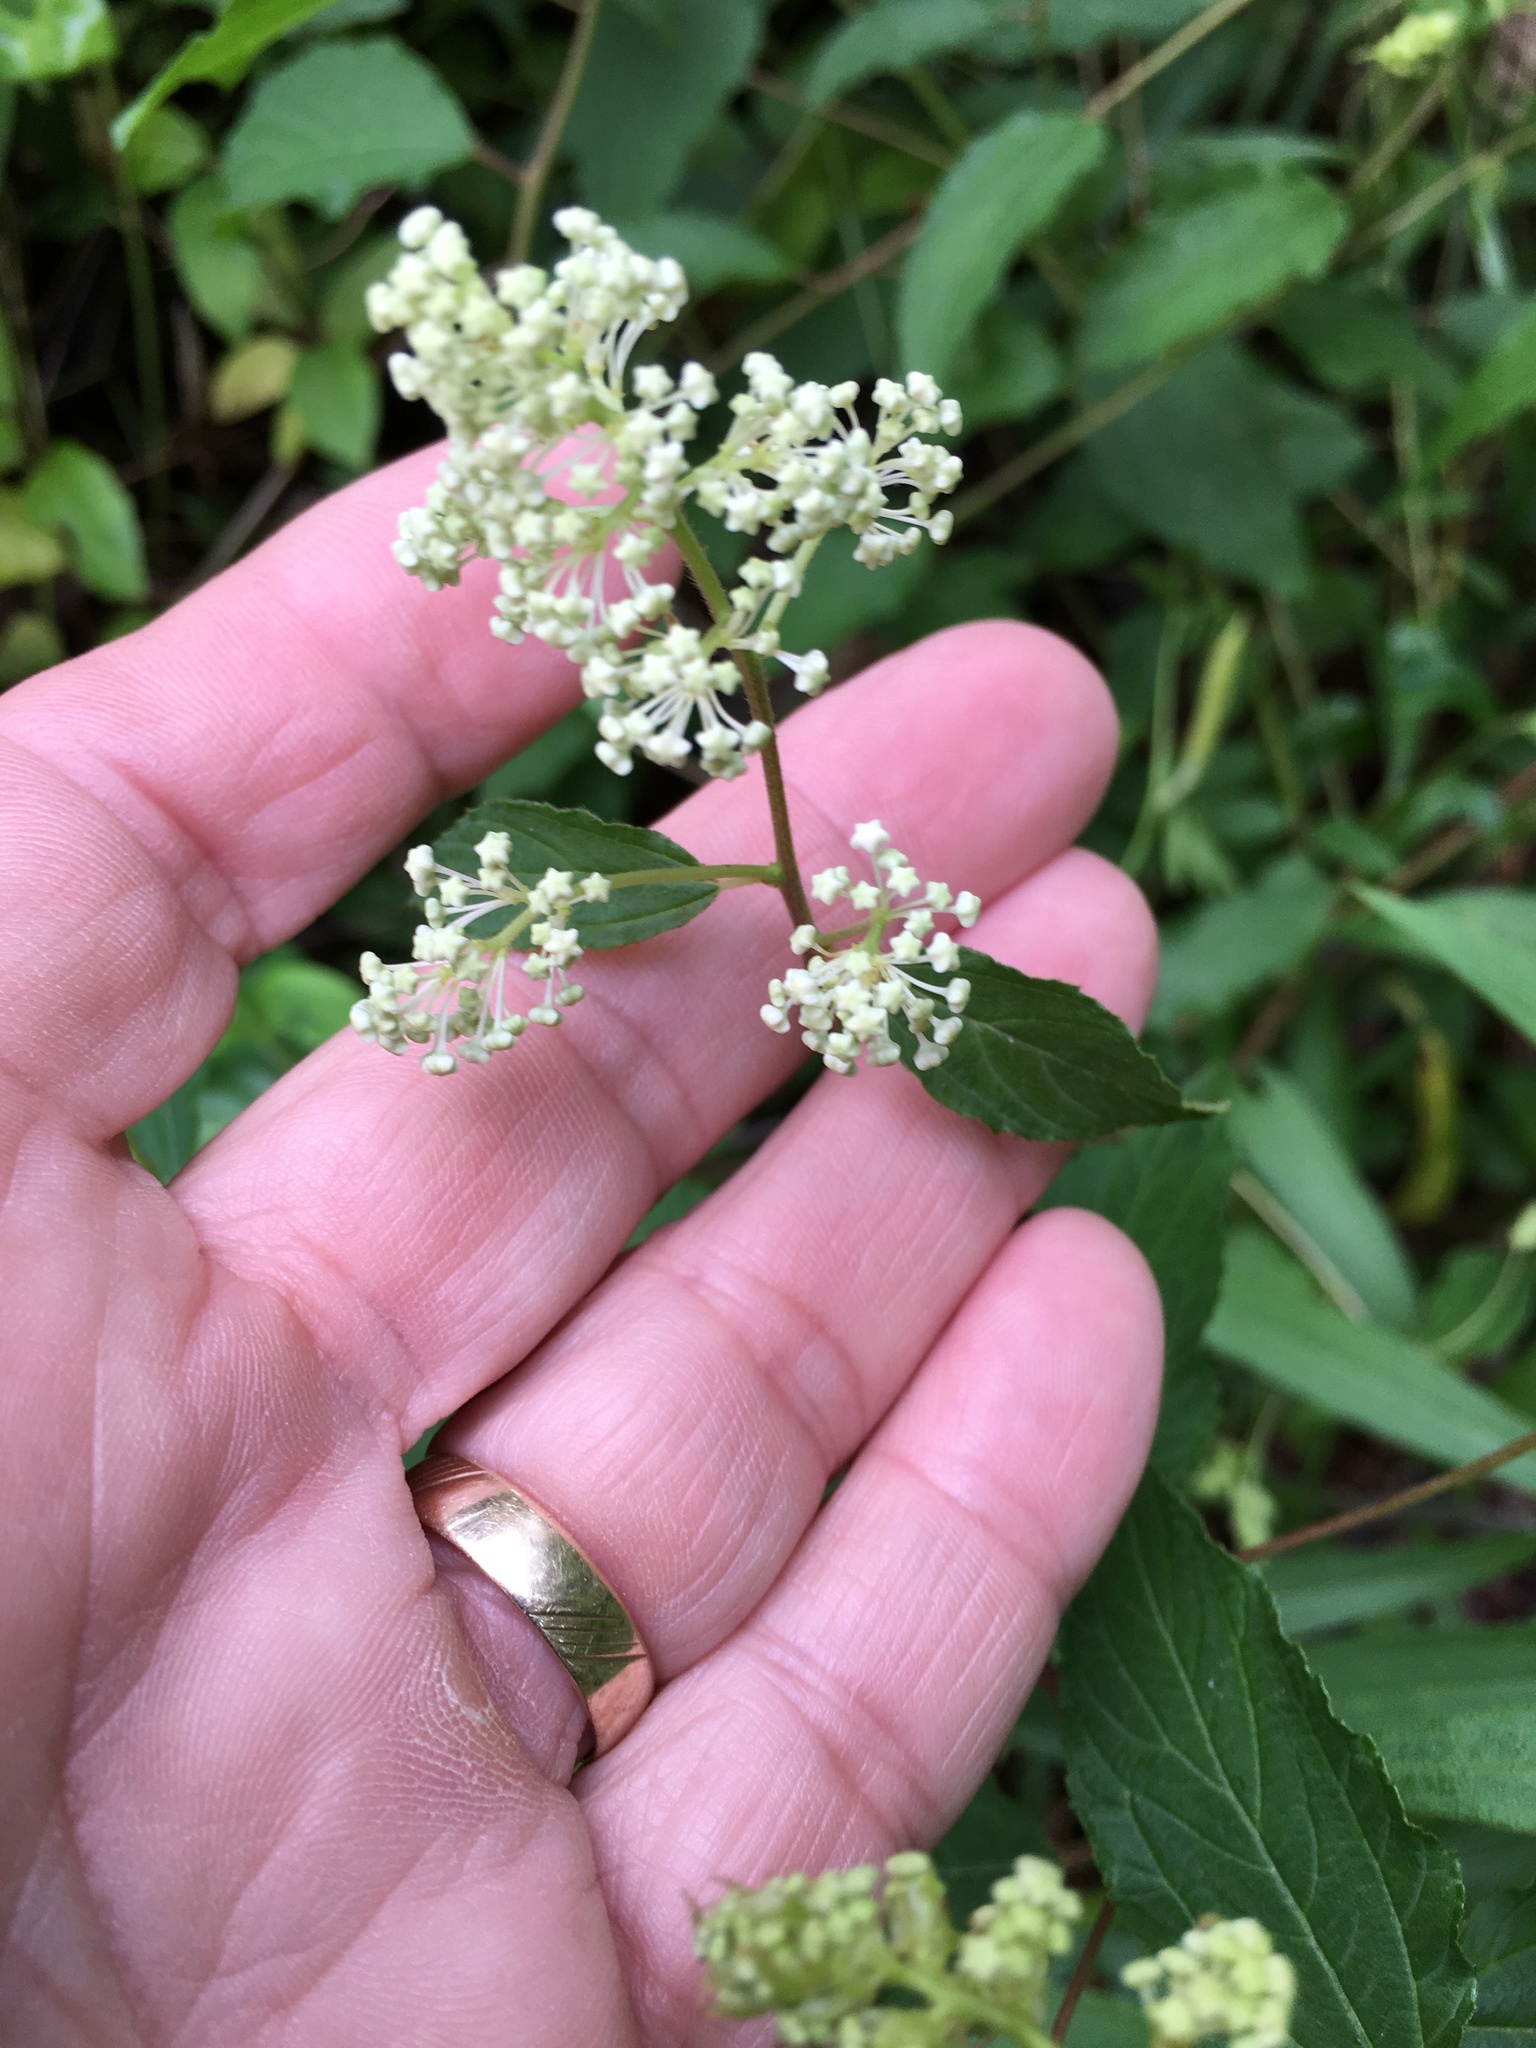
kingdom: Plantae
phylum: Tracheophyta
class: Magnoliopsida
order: Rosales
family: Rhamnaceae
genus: Ceanothus
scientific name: Ceanothus americanus
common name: Redroot
